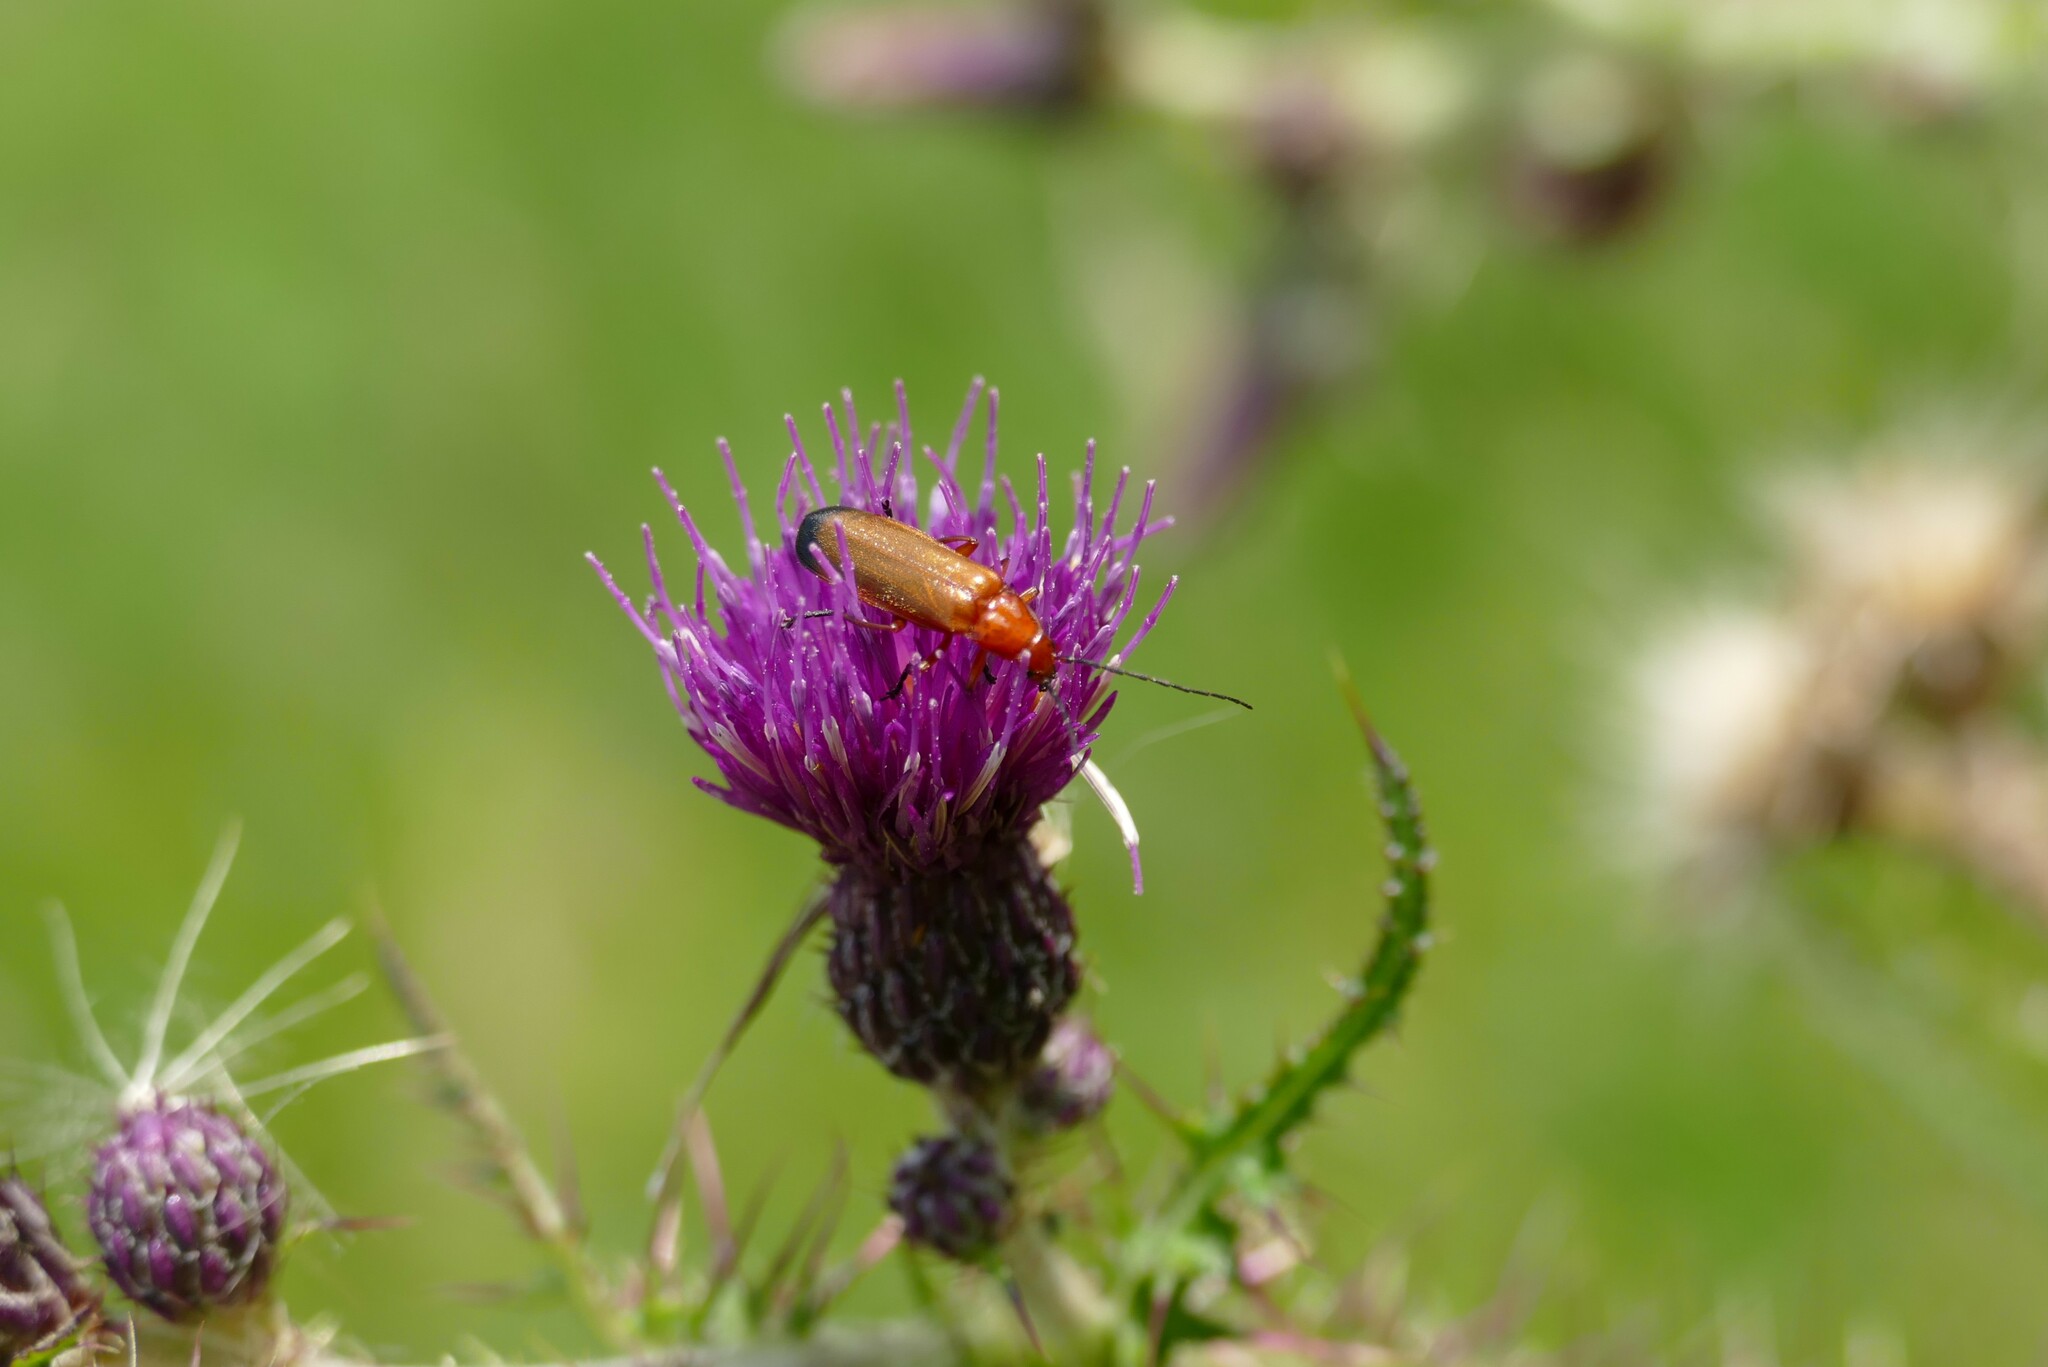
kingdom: Animalia
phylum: Arthropoda
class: Insecta
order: Coleoptera
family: Cantharidae
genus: Rhagonycha
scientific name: Rhagonycha fulva
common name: Common red soldier beetle
